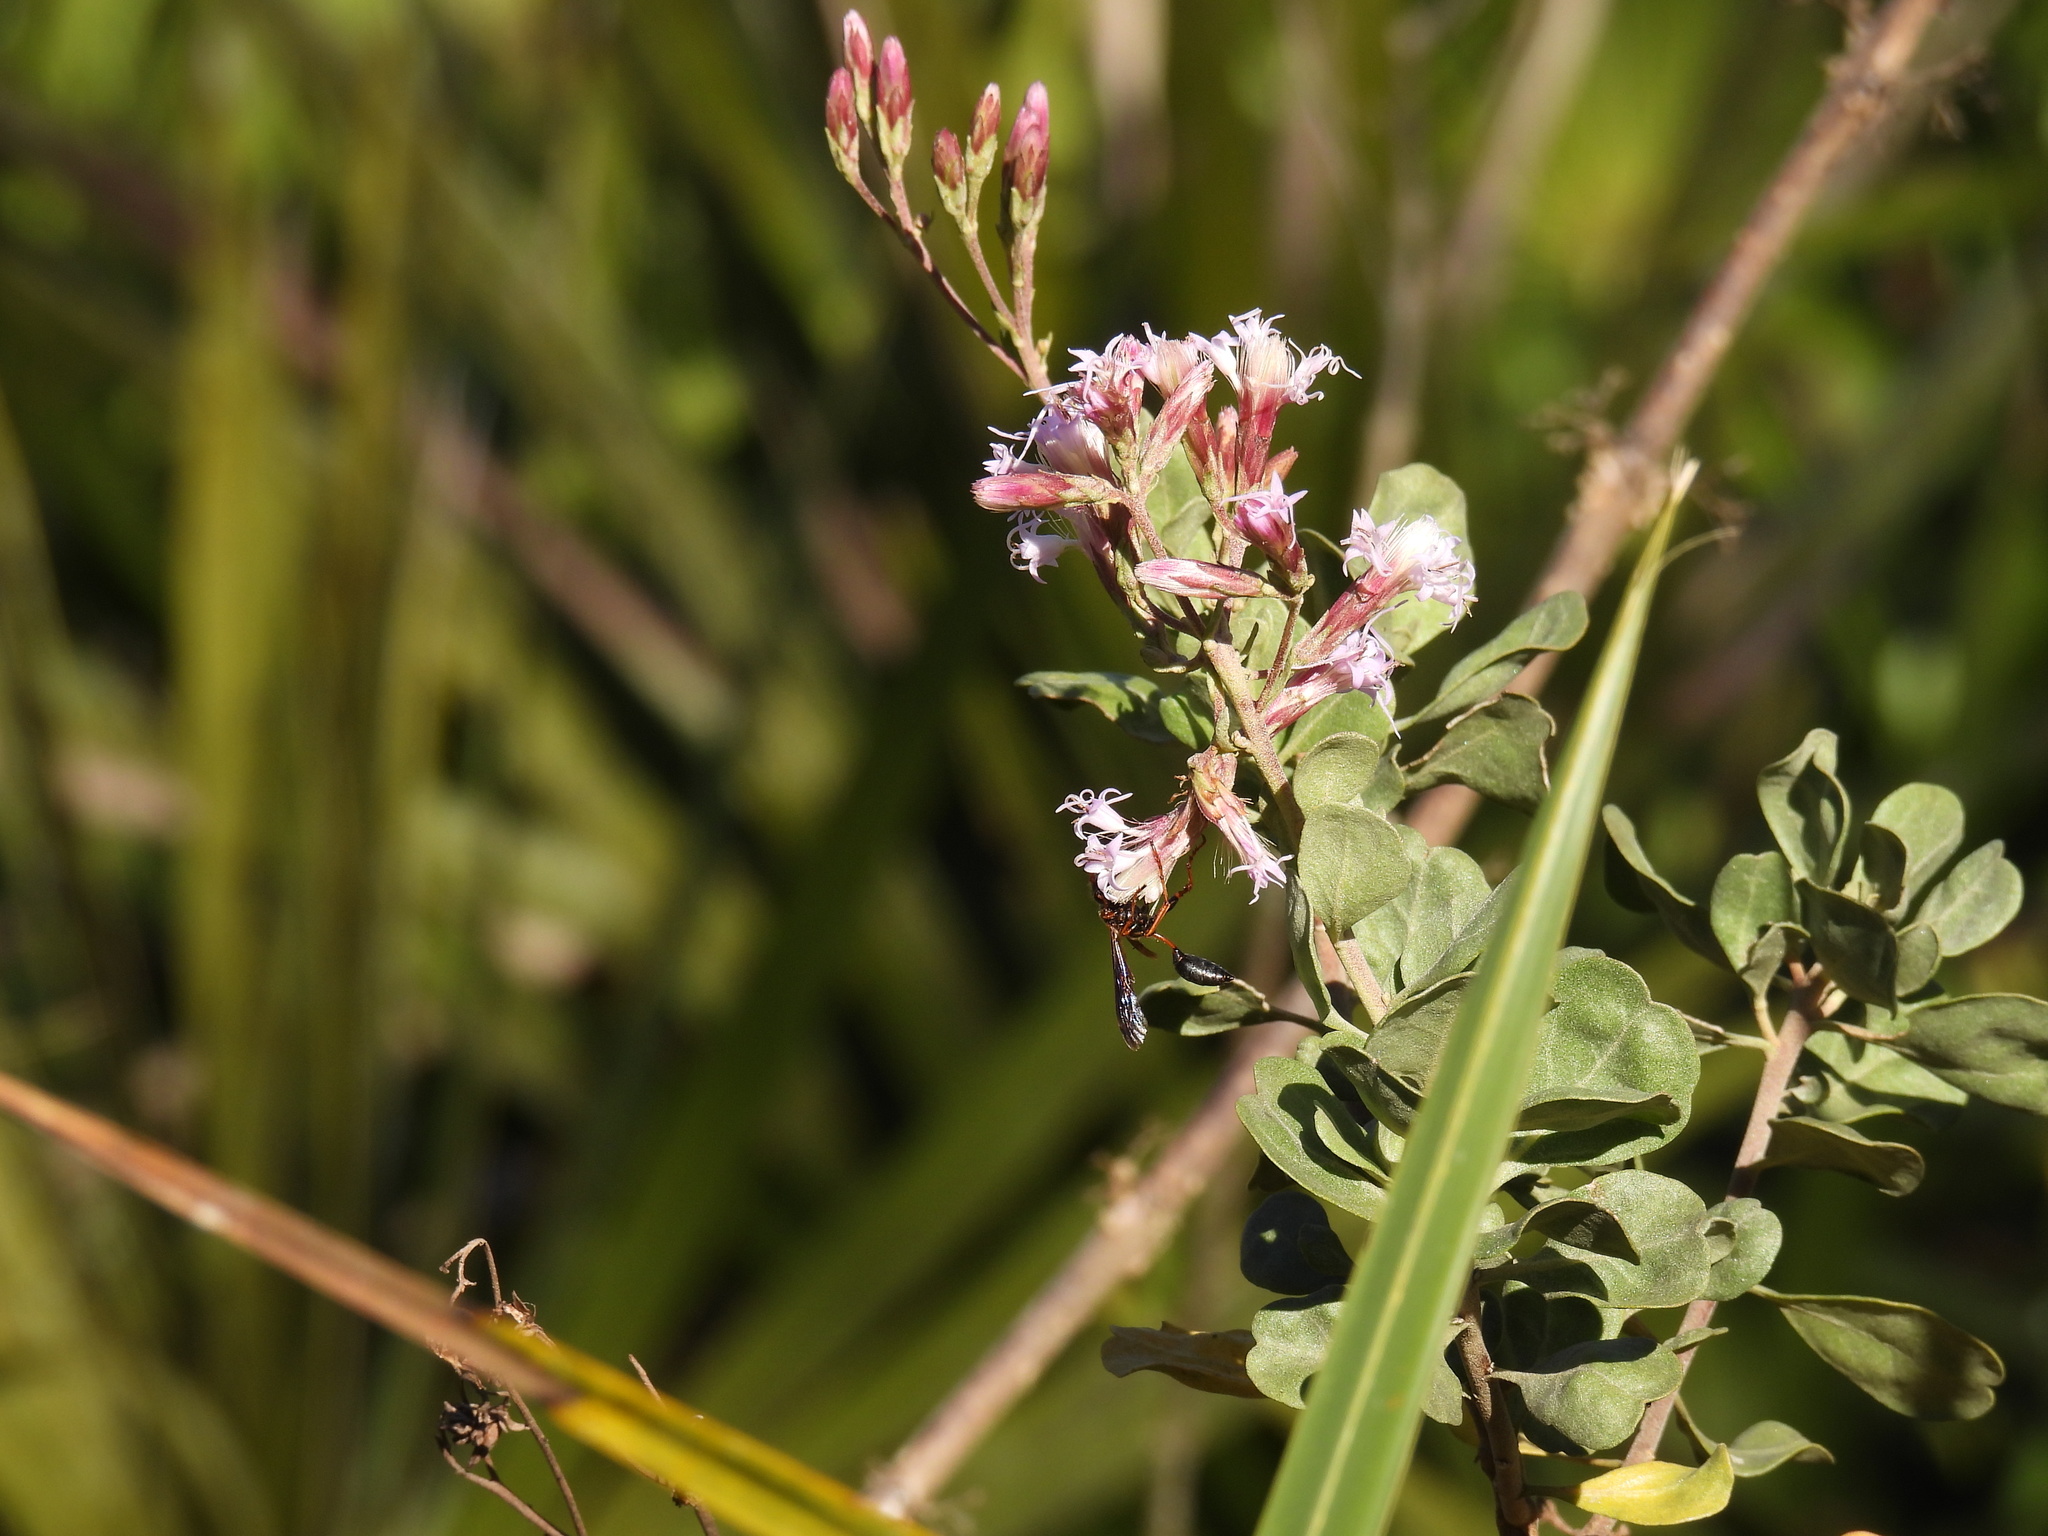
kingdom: Animalia
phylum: Arthropoda
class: Insecta
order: Hymenoptera
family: Sphecidae
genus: Isodontia
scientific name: Isodontia exornata
